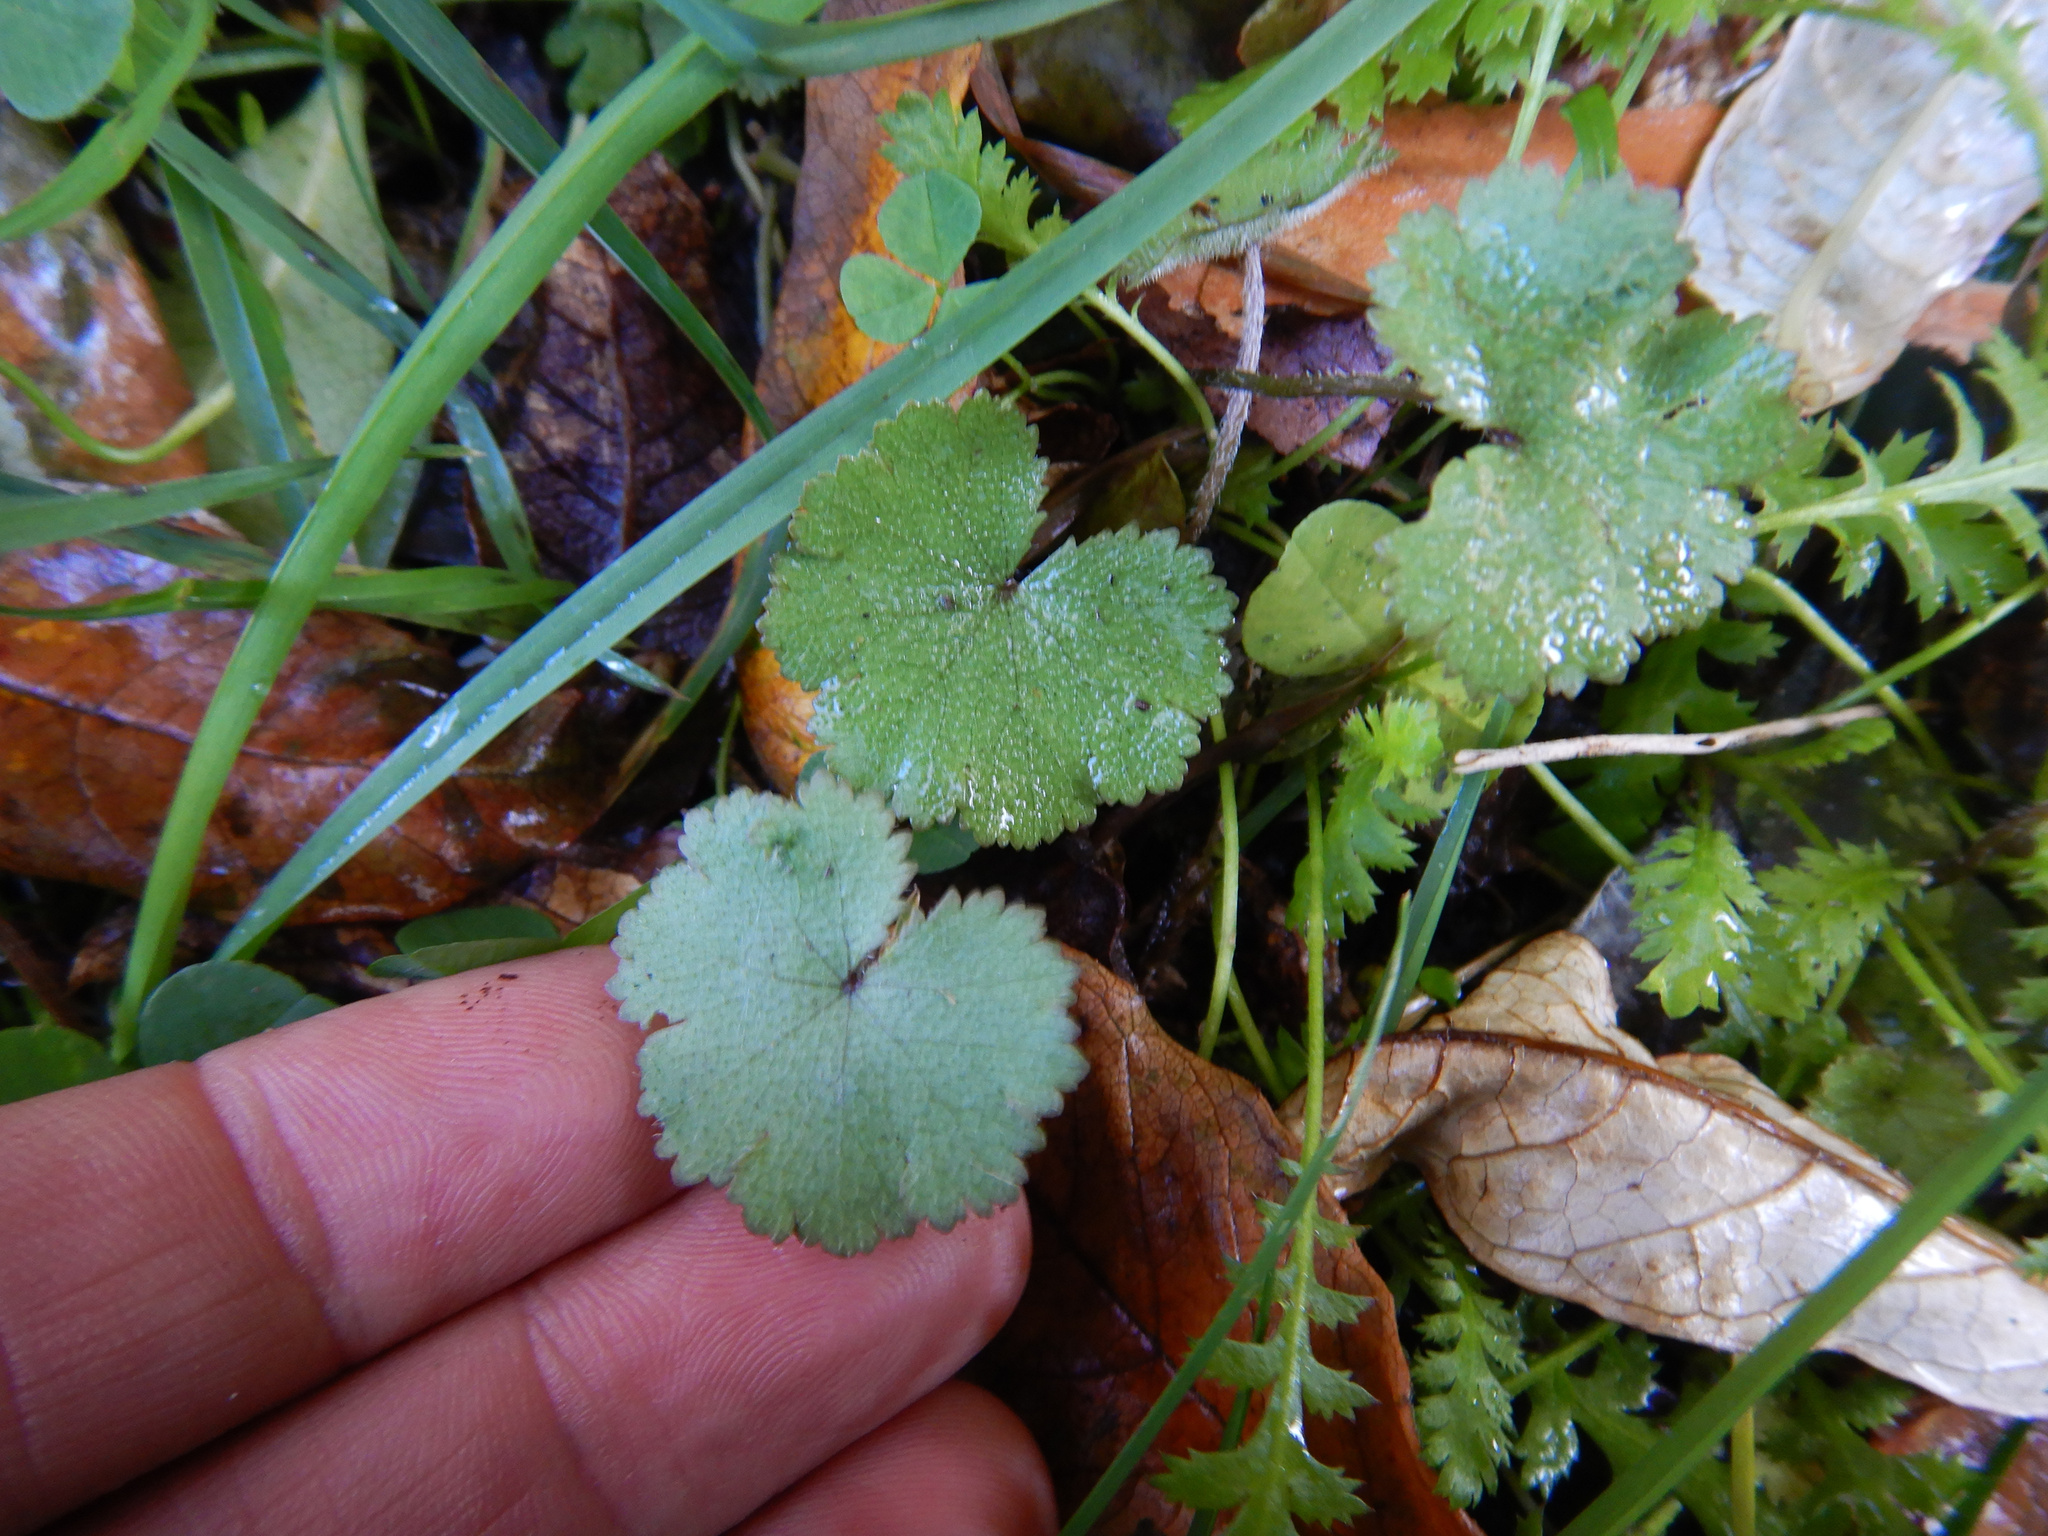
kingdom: Plantae
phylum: Tracheophyta
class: Magnoliopsida
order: Apiales
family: Araliaceae
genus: Hydrocotyle
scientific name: Hydrocotyle moschata
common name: Hairy pennywort
